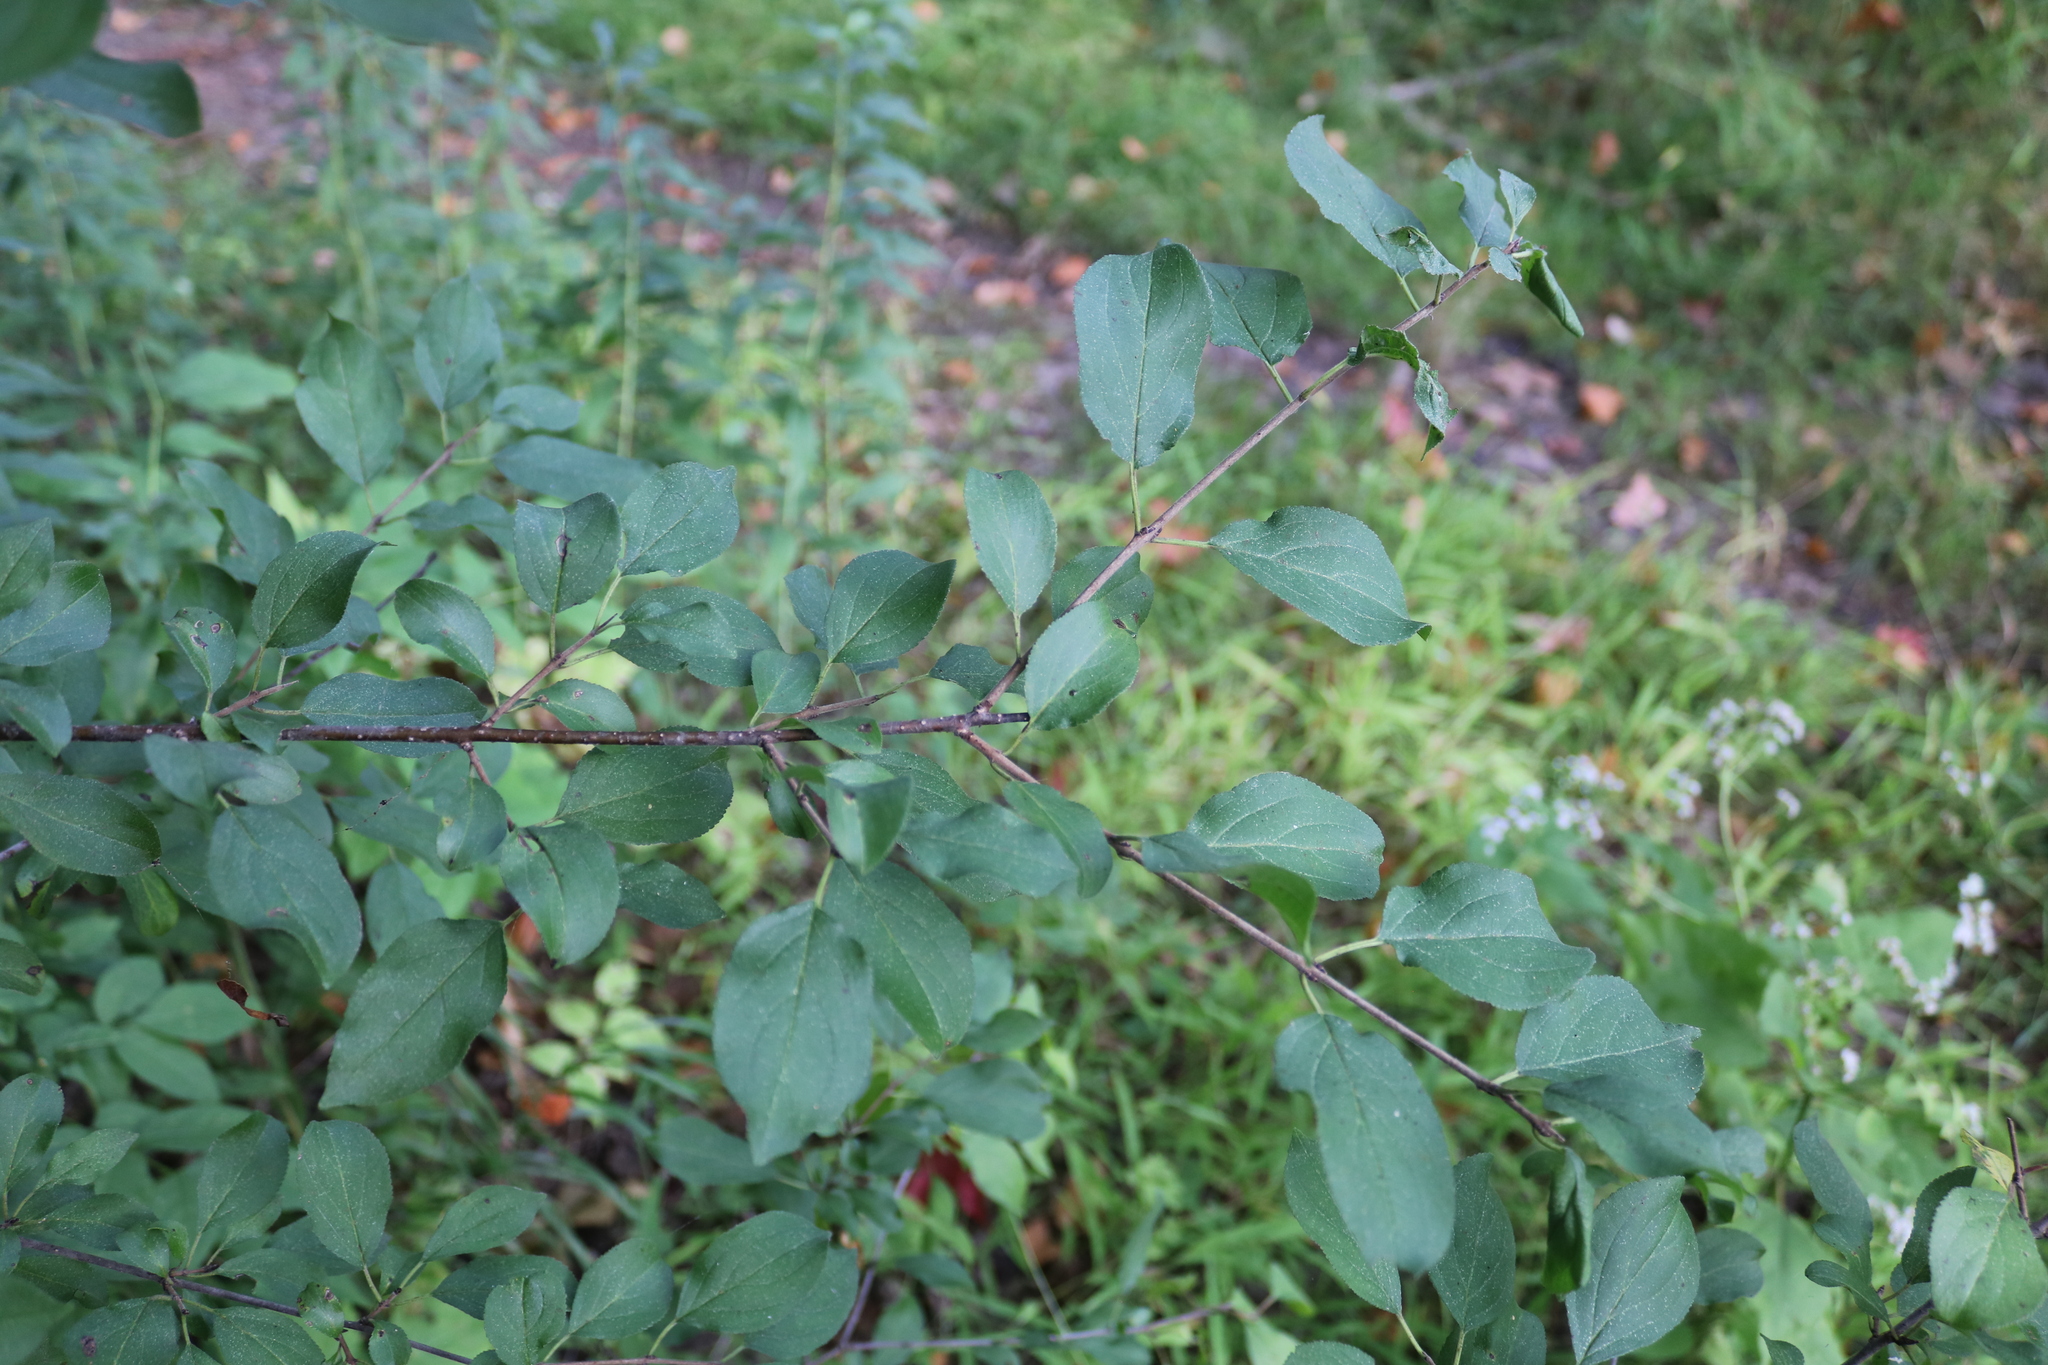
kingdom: Plantae
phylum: Tracheophyta
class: Magnoliopsida
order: Rosales
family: Rhamnaceae
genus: Rhamnus
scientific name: Rhamnus cathartica
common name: Common buckthorn
